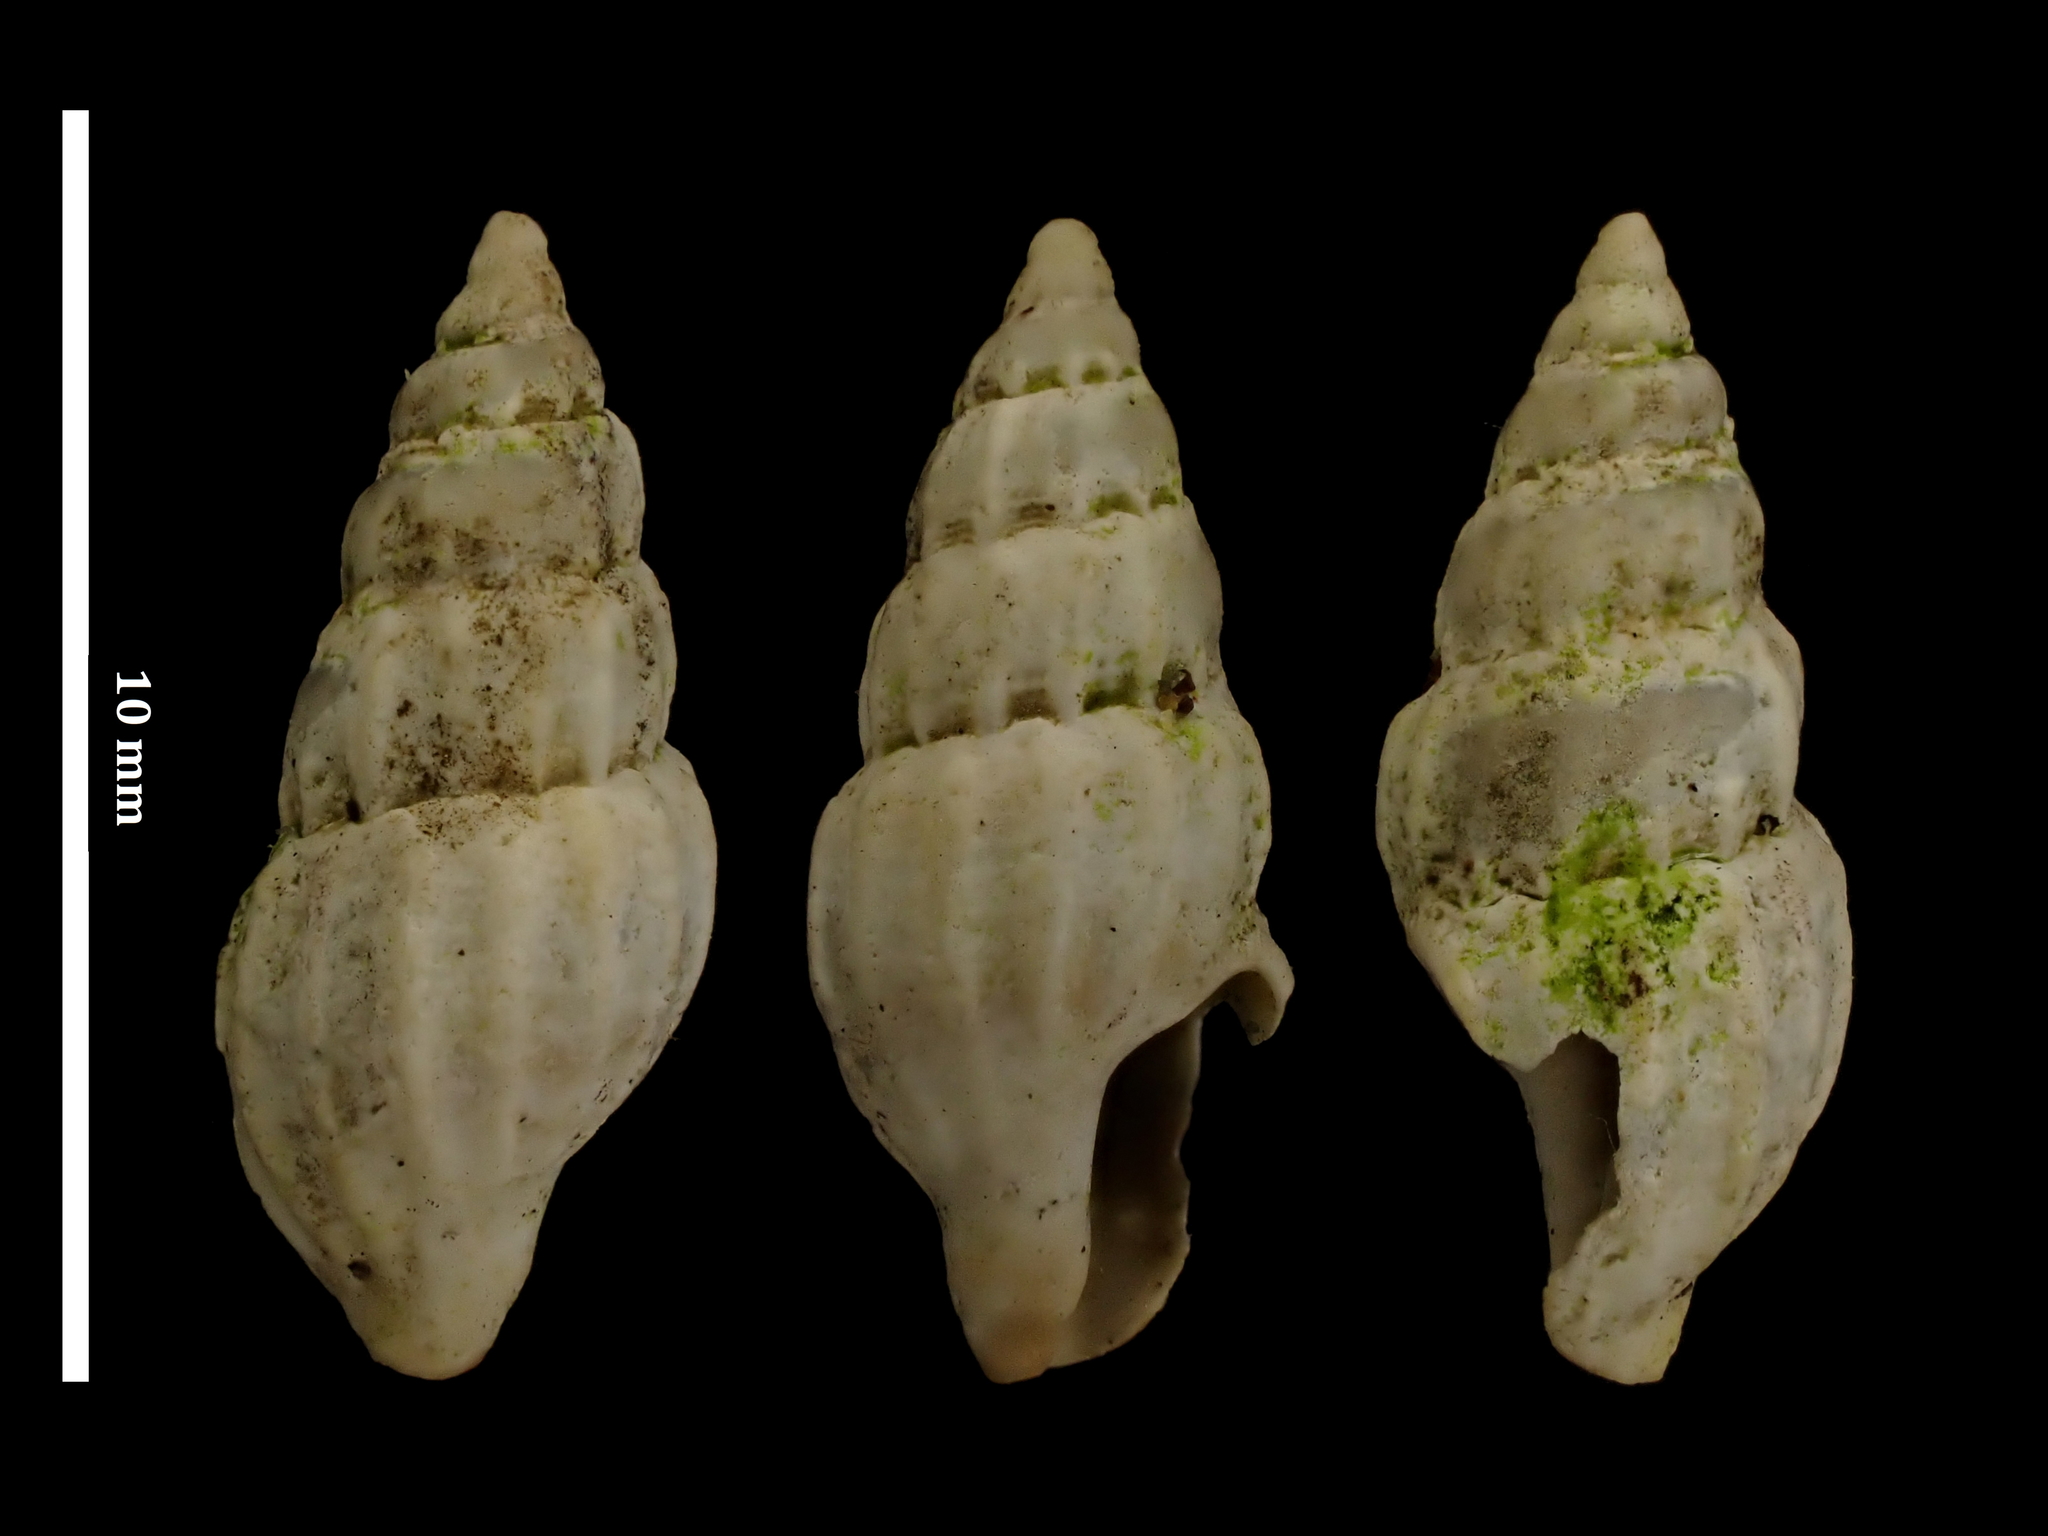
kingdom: Animalia
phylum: Mollusca
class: Gastropoda
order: Neogastropoda
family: Mangeliidae
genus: Neoguraleus
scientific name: Neoguraleus finlayi
